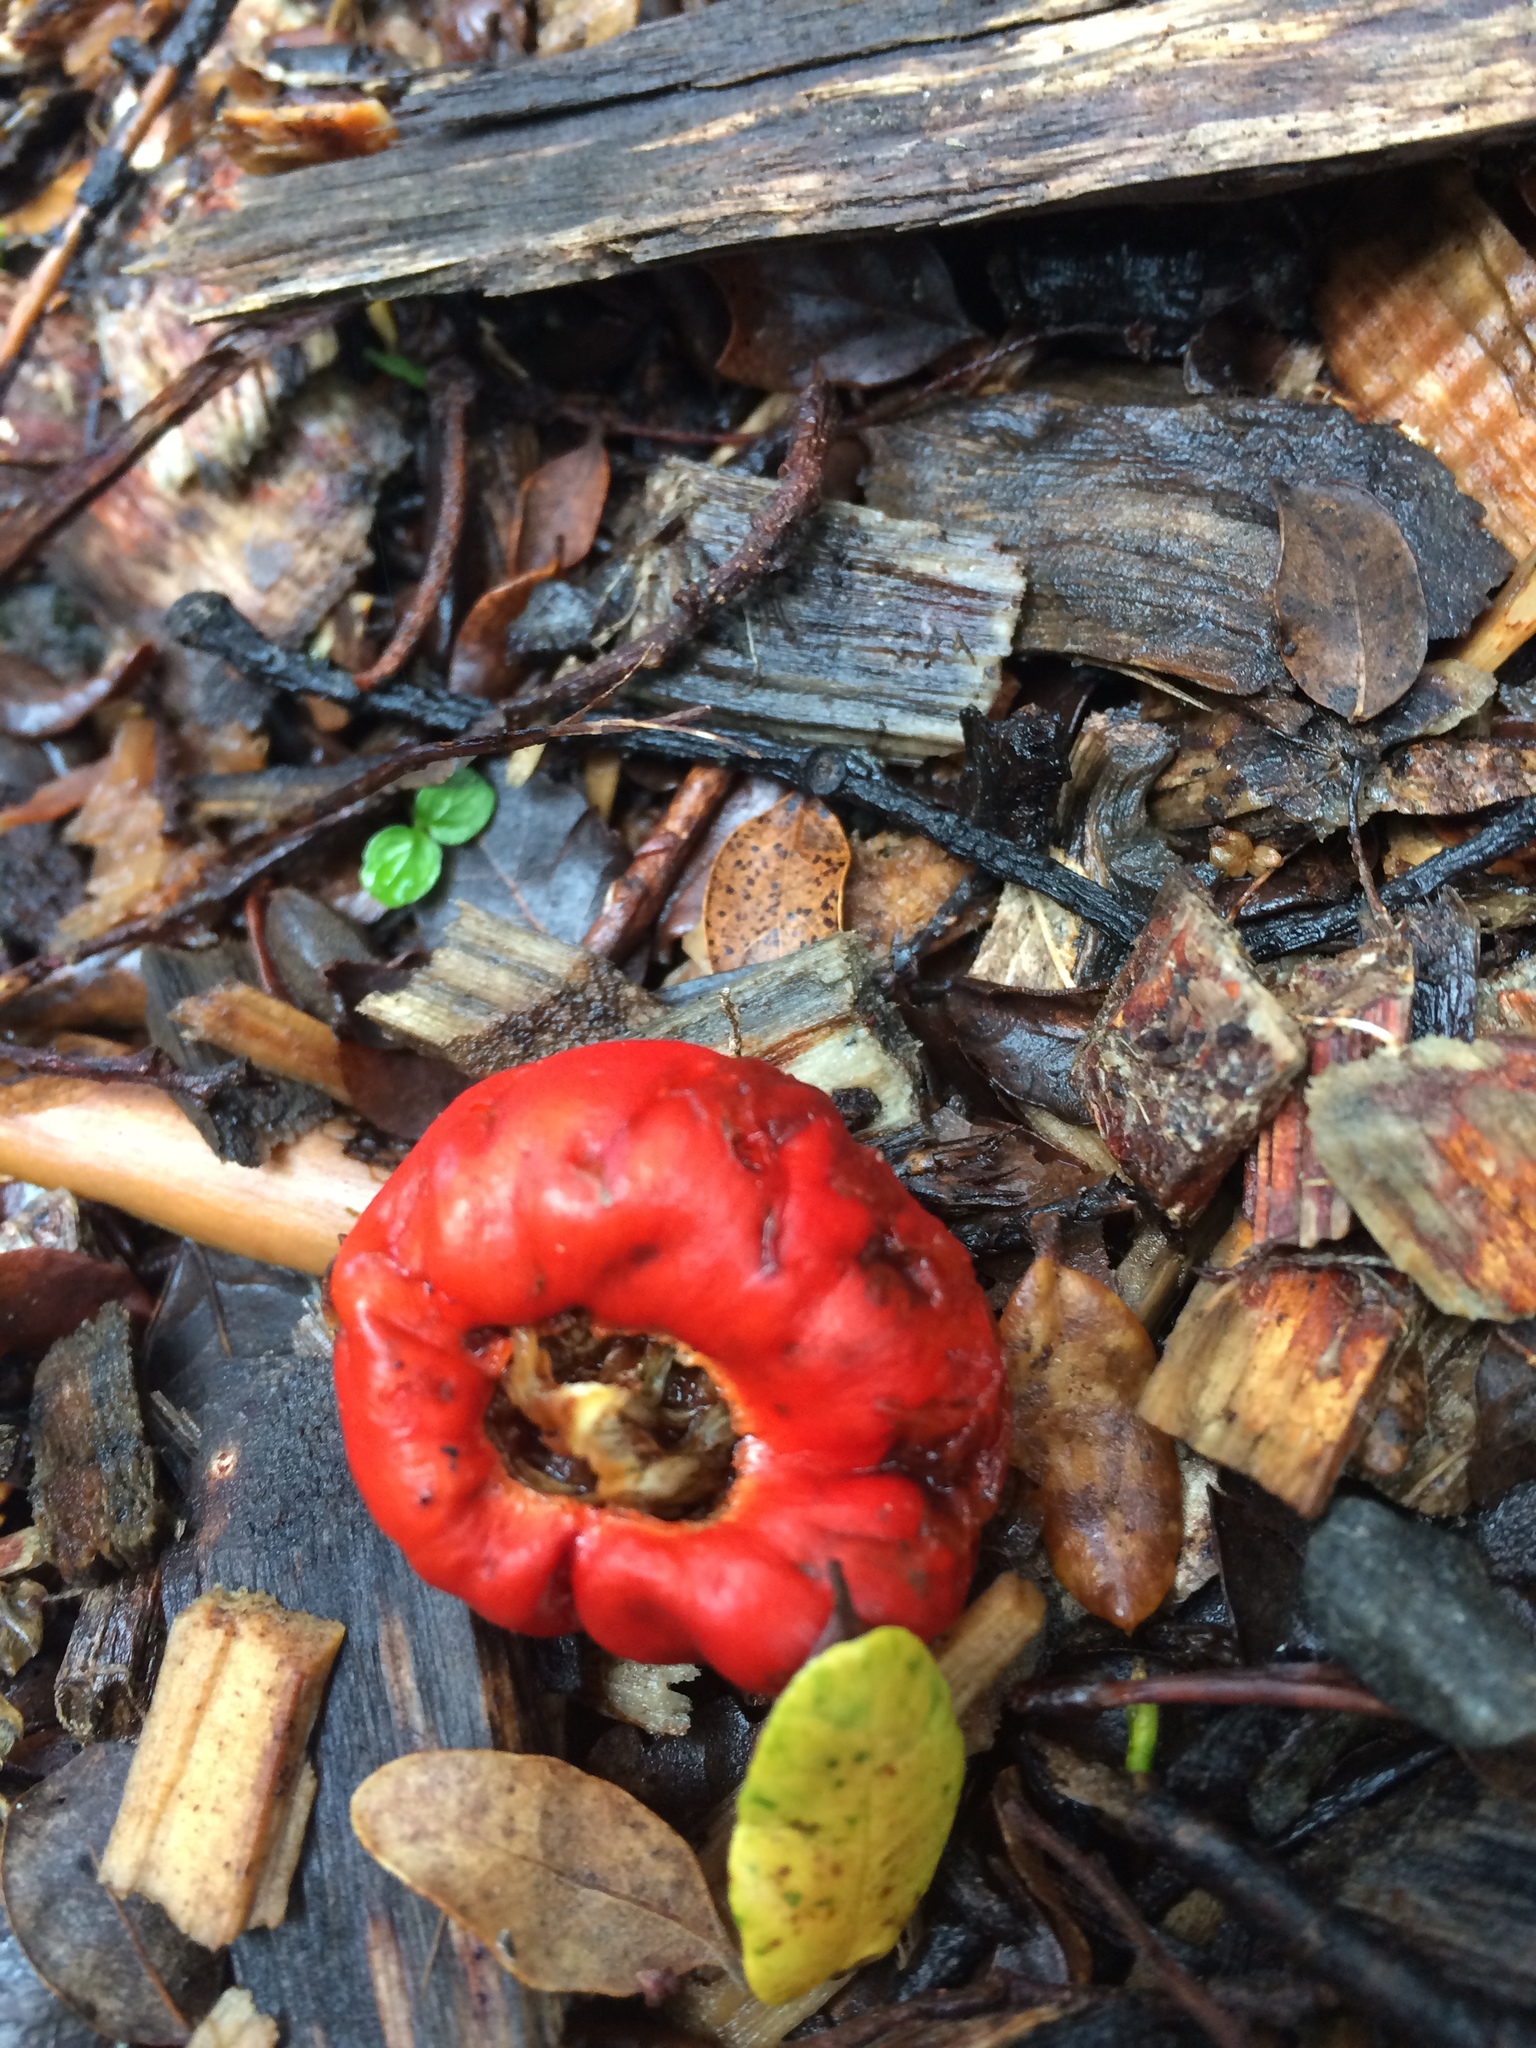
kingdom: Fungi
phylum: Basidiomycota
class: Agaricomycetes
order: Agaricales
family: Strophariaceae
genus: Leratiomyces
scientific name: Leratiomyces erythrocephalus
